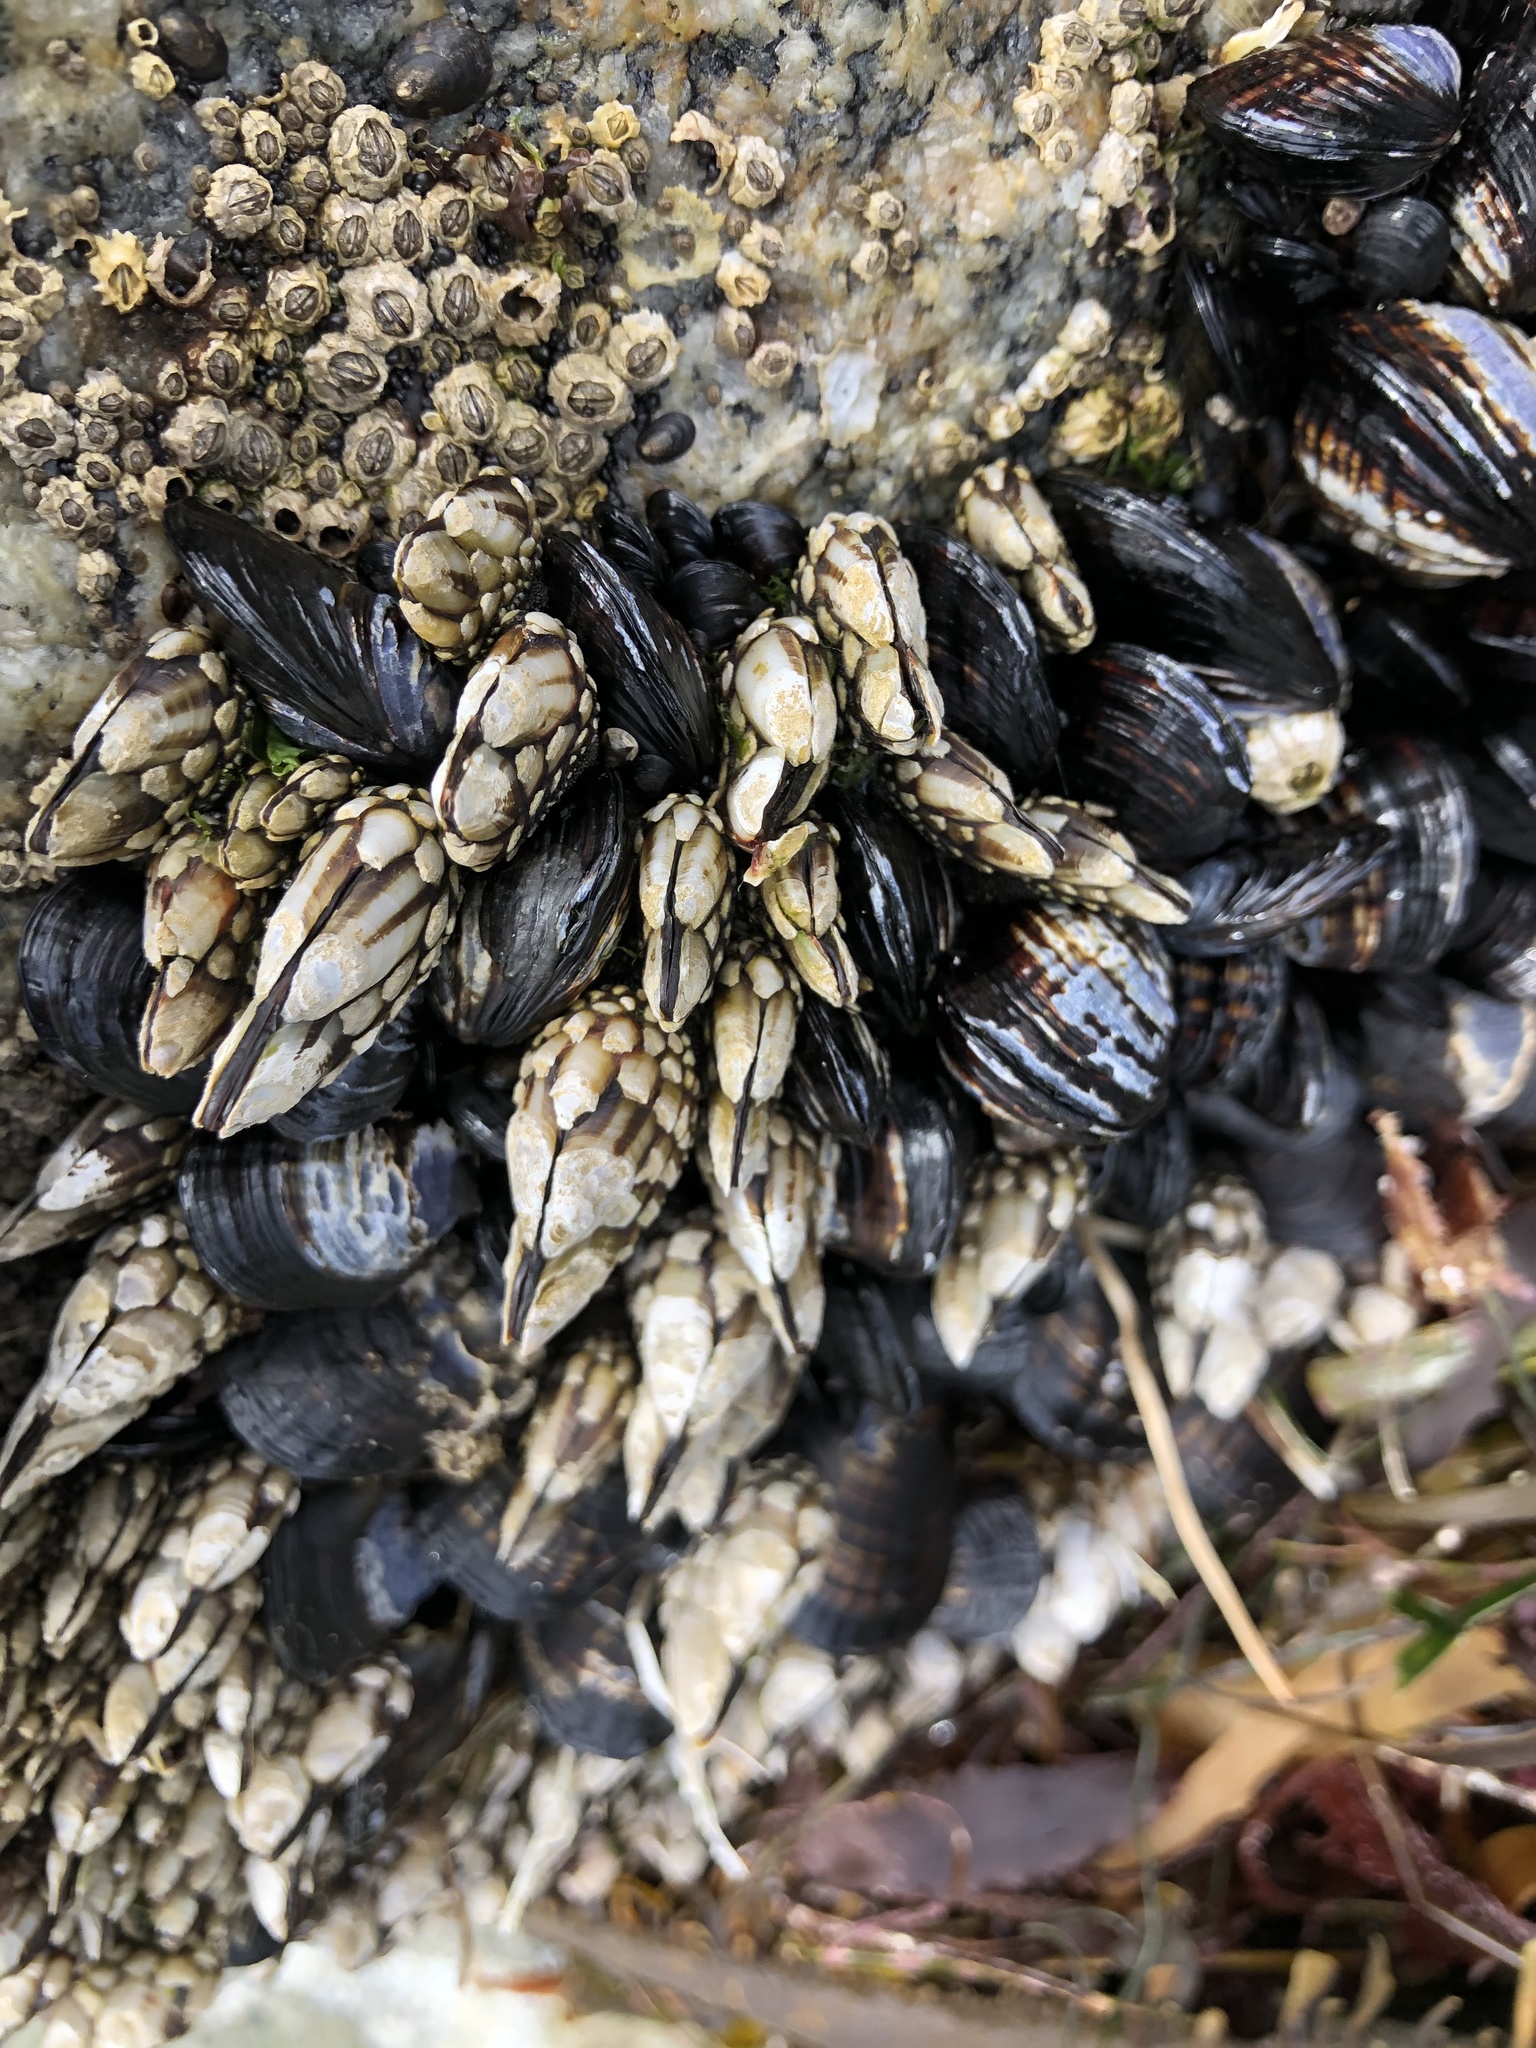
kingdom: Animalia
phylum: Arthropoda
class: Maxillopoda
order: Pedunculata
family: Pollicipedidae
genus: Pollicipes
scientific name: Pollicipes polymerus
